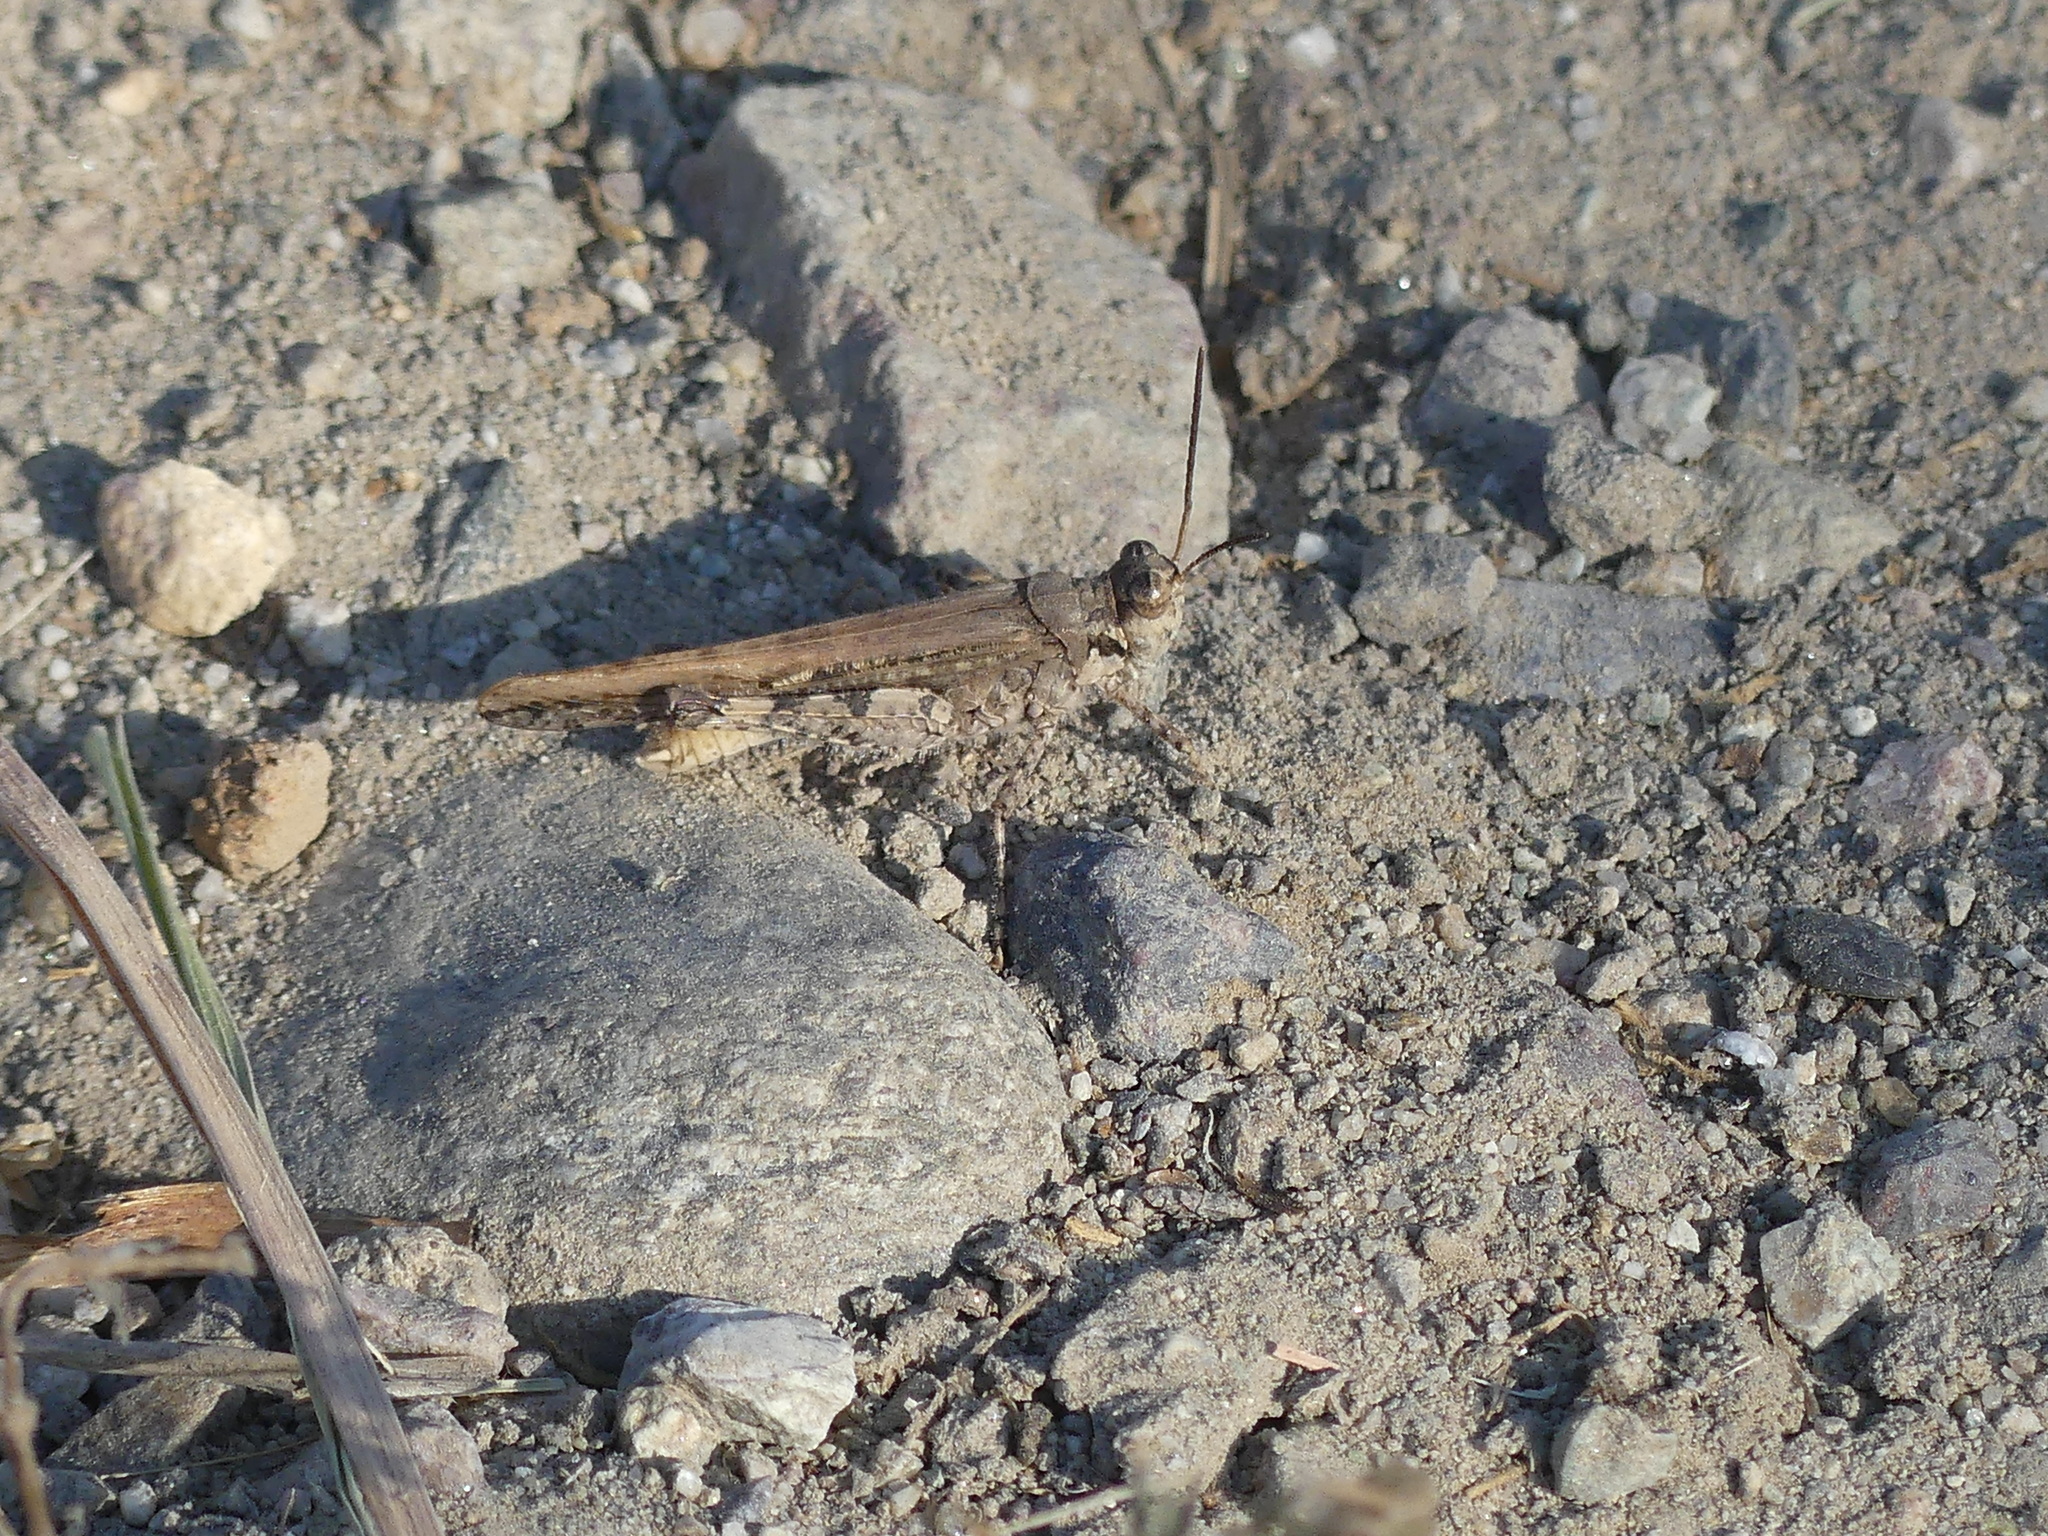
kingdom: Animalia
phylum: Arthropoda
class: Insecta
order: Orthoptera
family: Acrididae
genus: Acrotylus
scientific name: Acrotylus patruelis
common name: Slender burrowing grasshopper
